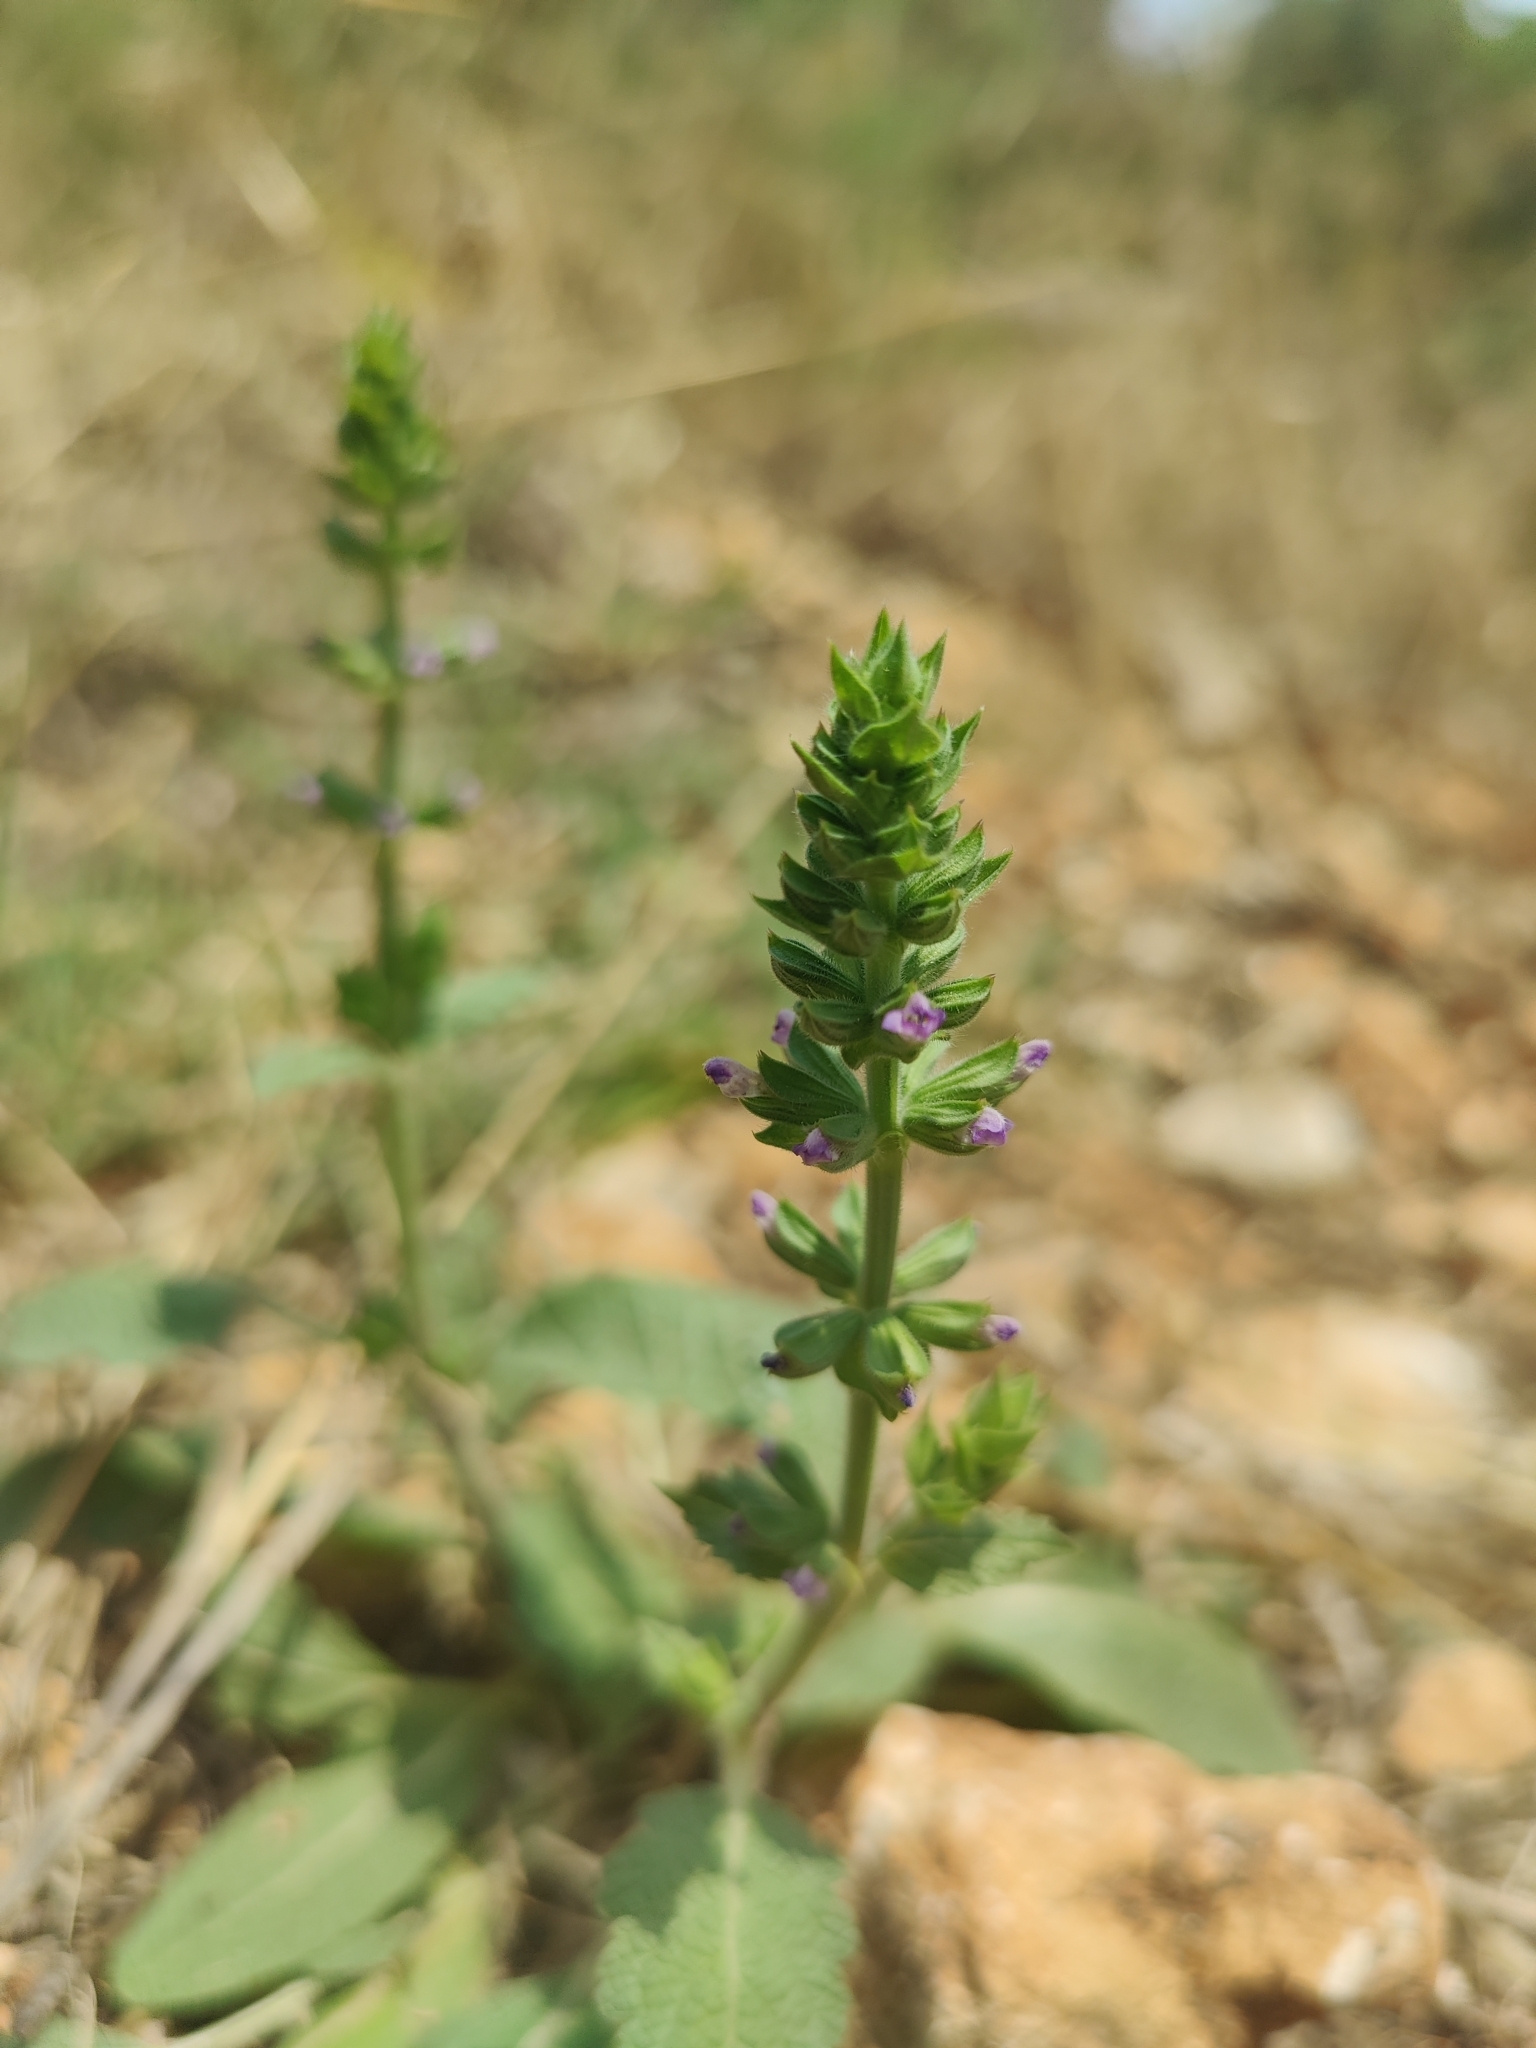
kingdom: Plantae
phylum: Tracheophyta
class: Magnoliopsida
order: Lamiales
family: Lamiaceae
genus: Salvia
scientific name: Salvia verbenaca
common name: Wild clary
